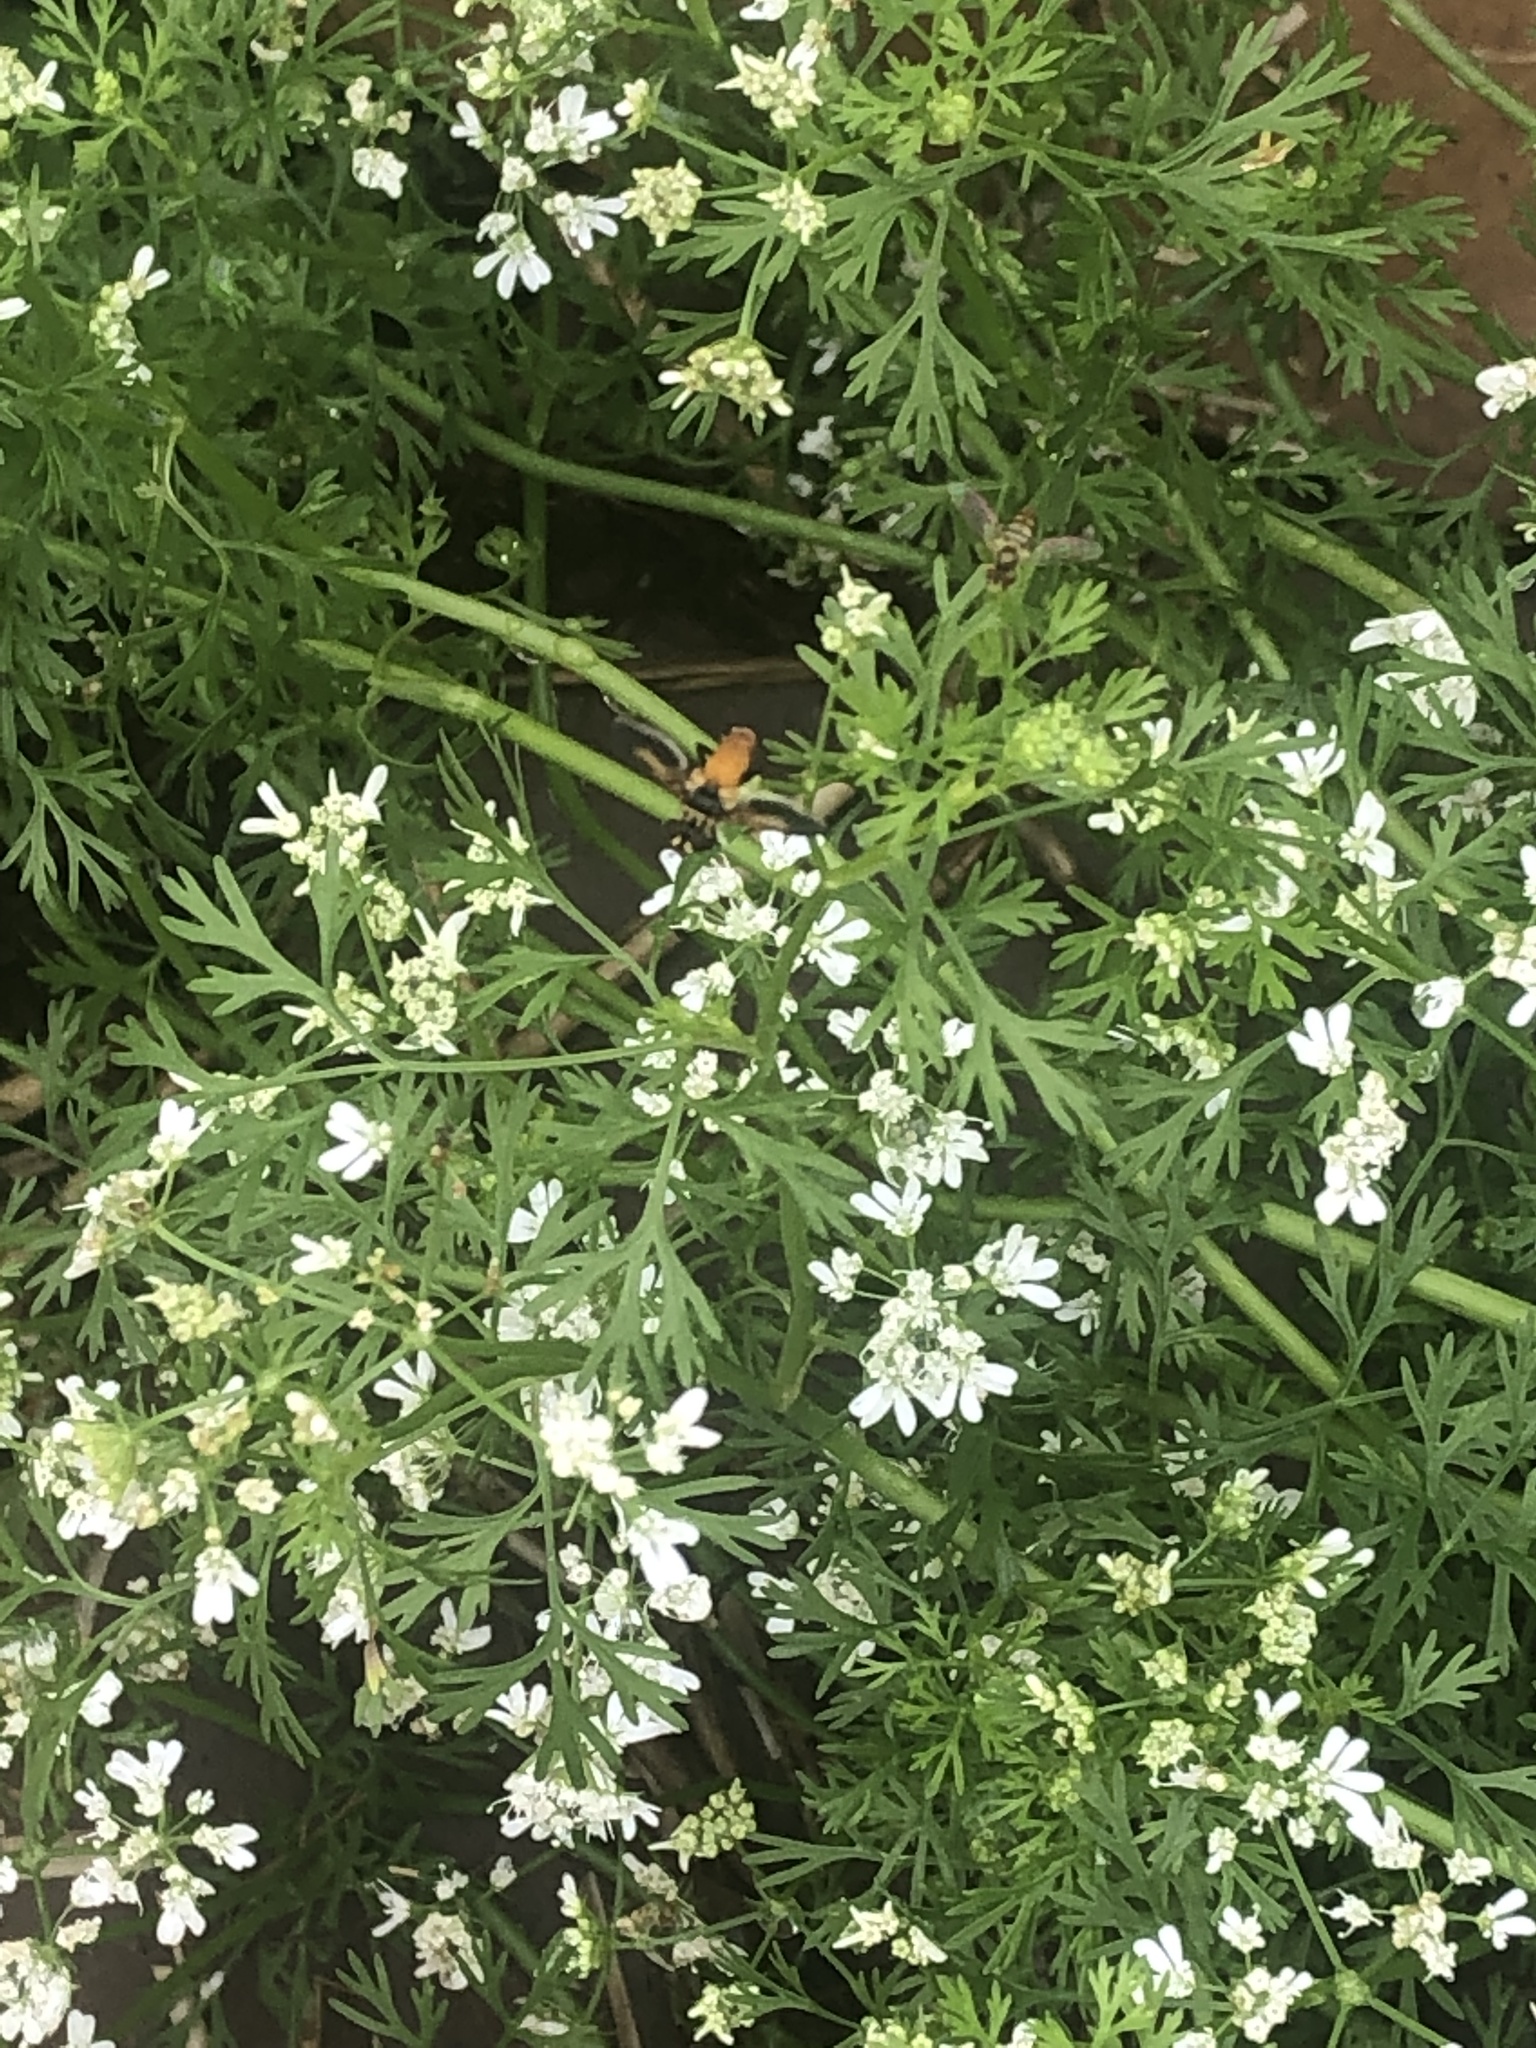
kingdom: Animalia
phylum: Arthropoda
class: Insecta
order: Diptera
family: Tachinidae
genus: Trichopoda
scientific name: Trichopoda pennipes
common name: Tachinid fly
